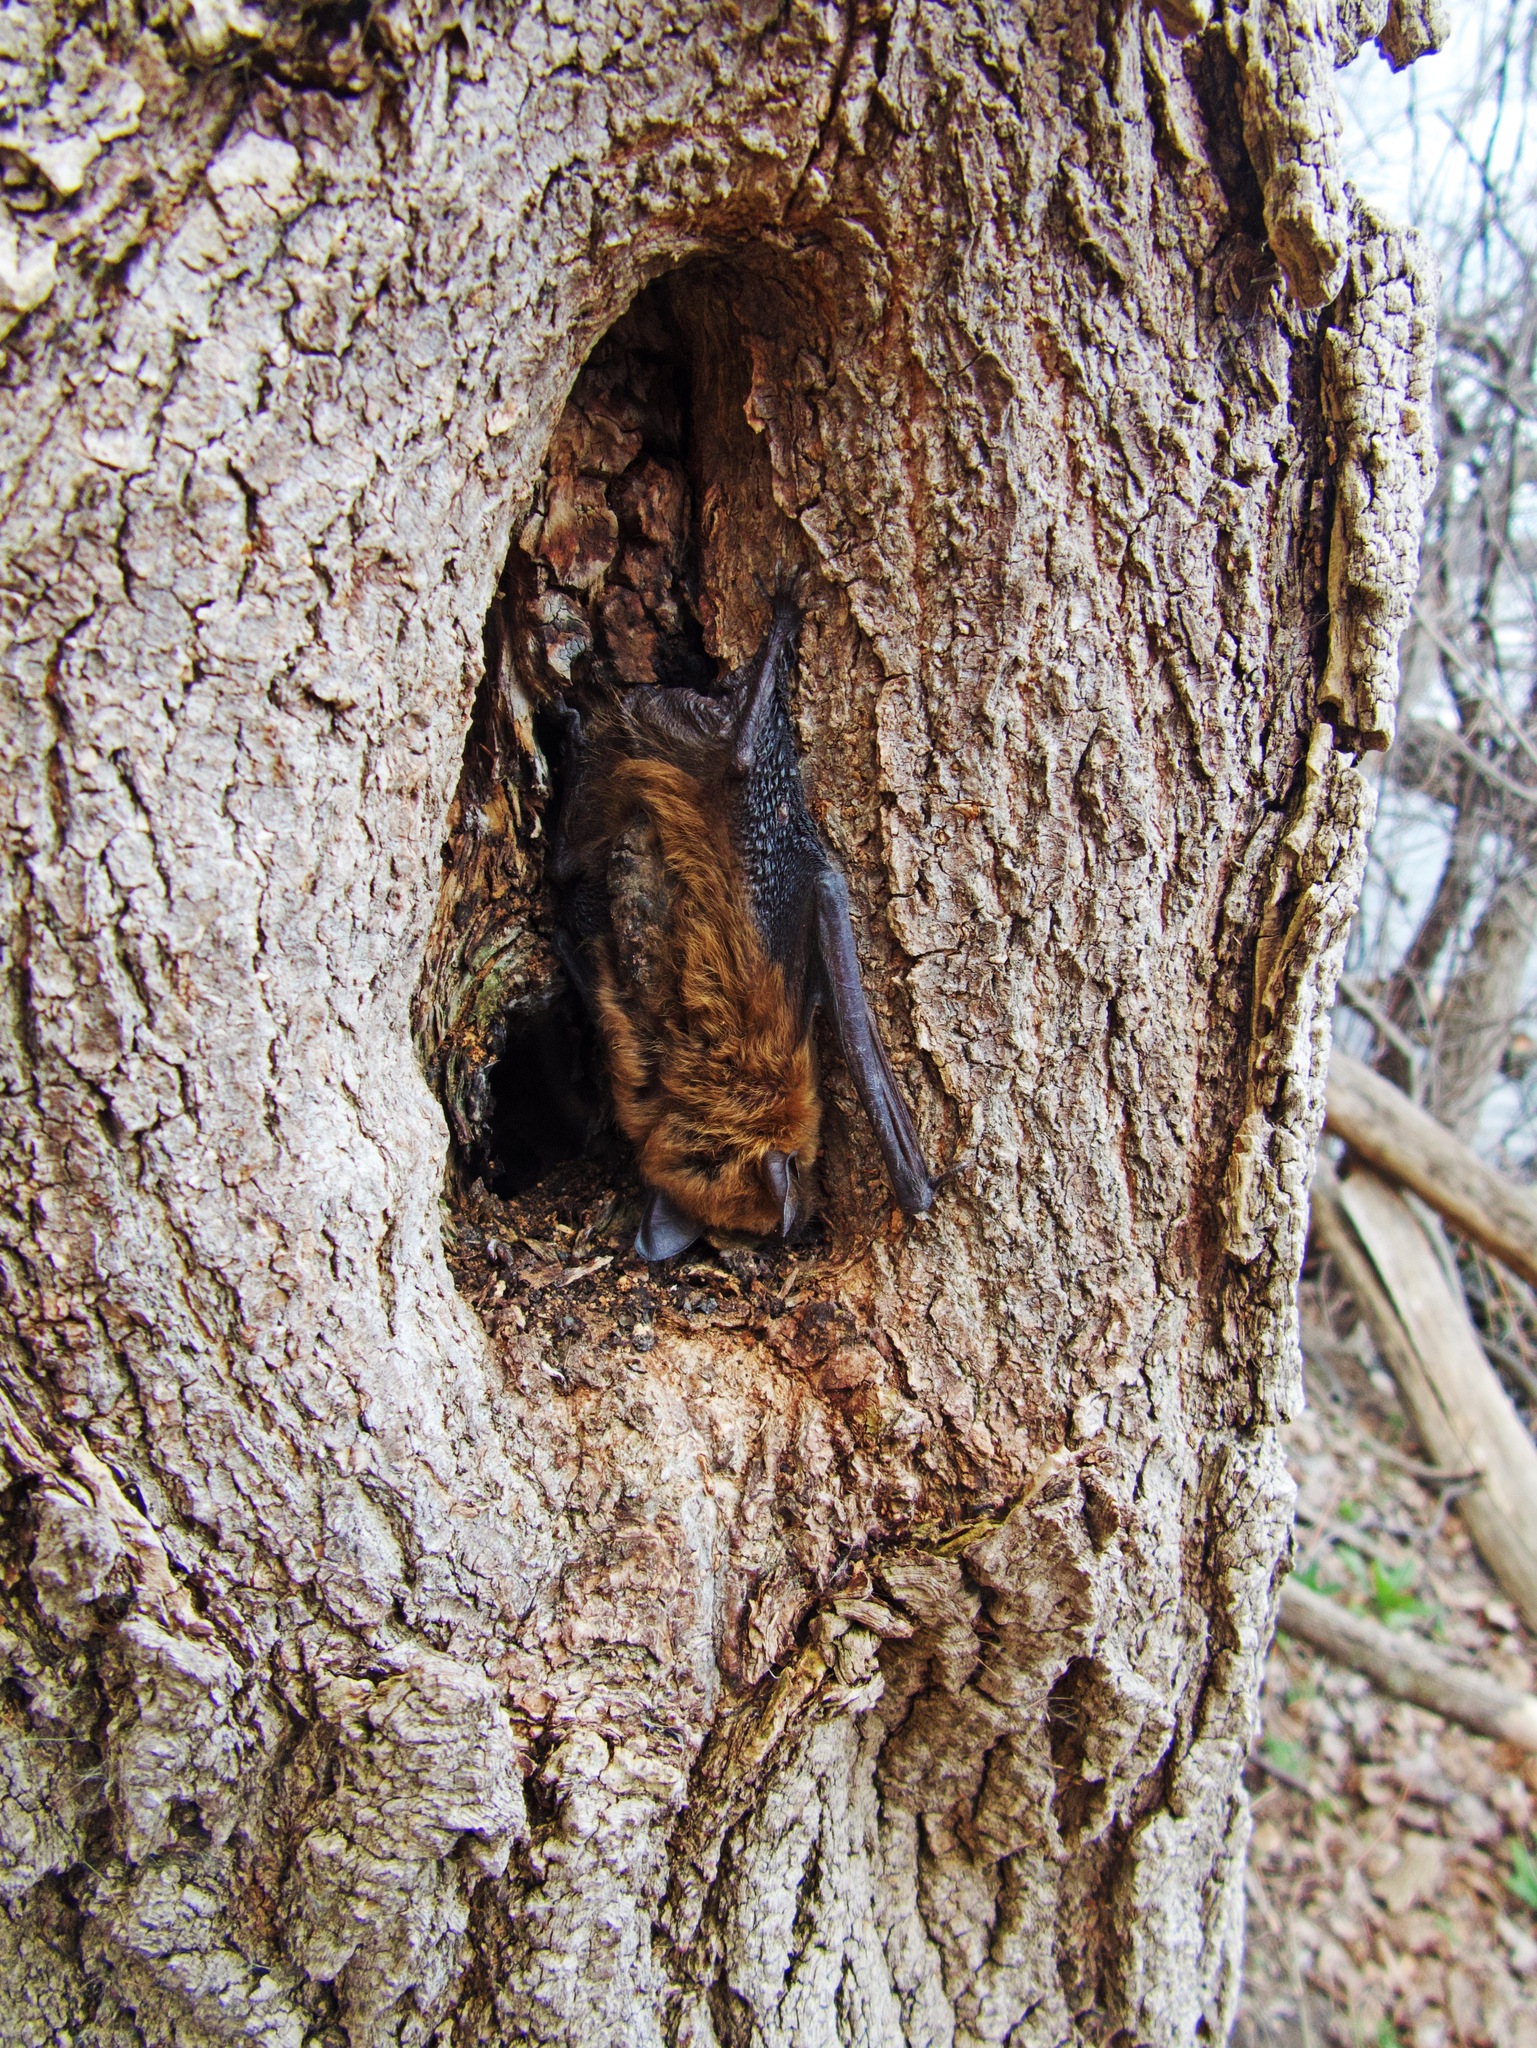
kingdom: Animalia
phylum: Chordata
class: Mammalia
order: Chiroptera
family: Vespertilionidae
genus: Eptesicus
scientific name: Eptesicus fuscus
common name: Big brown bat
